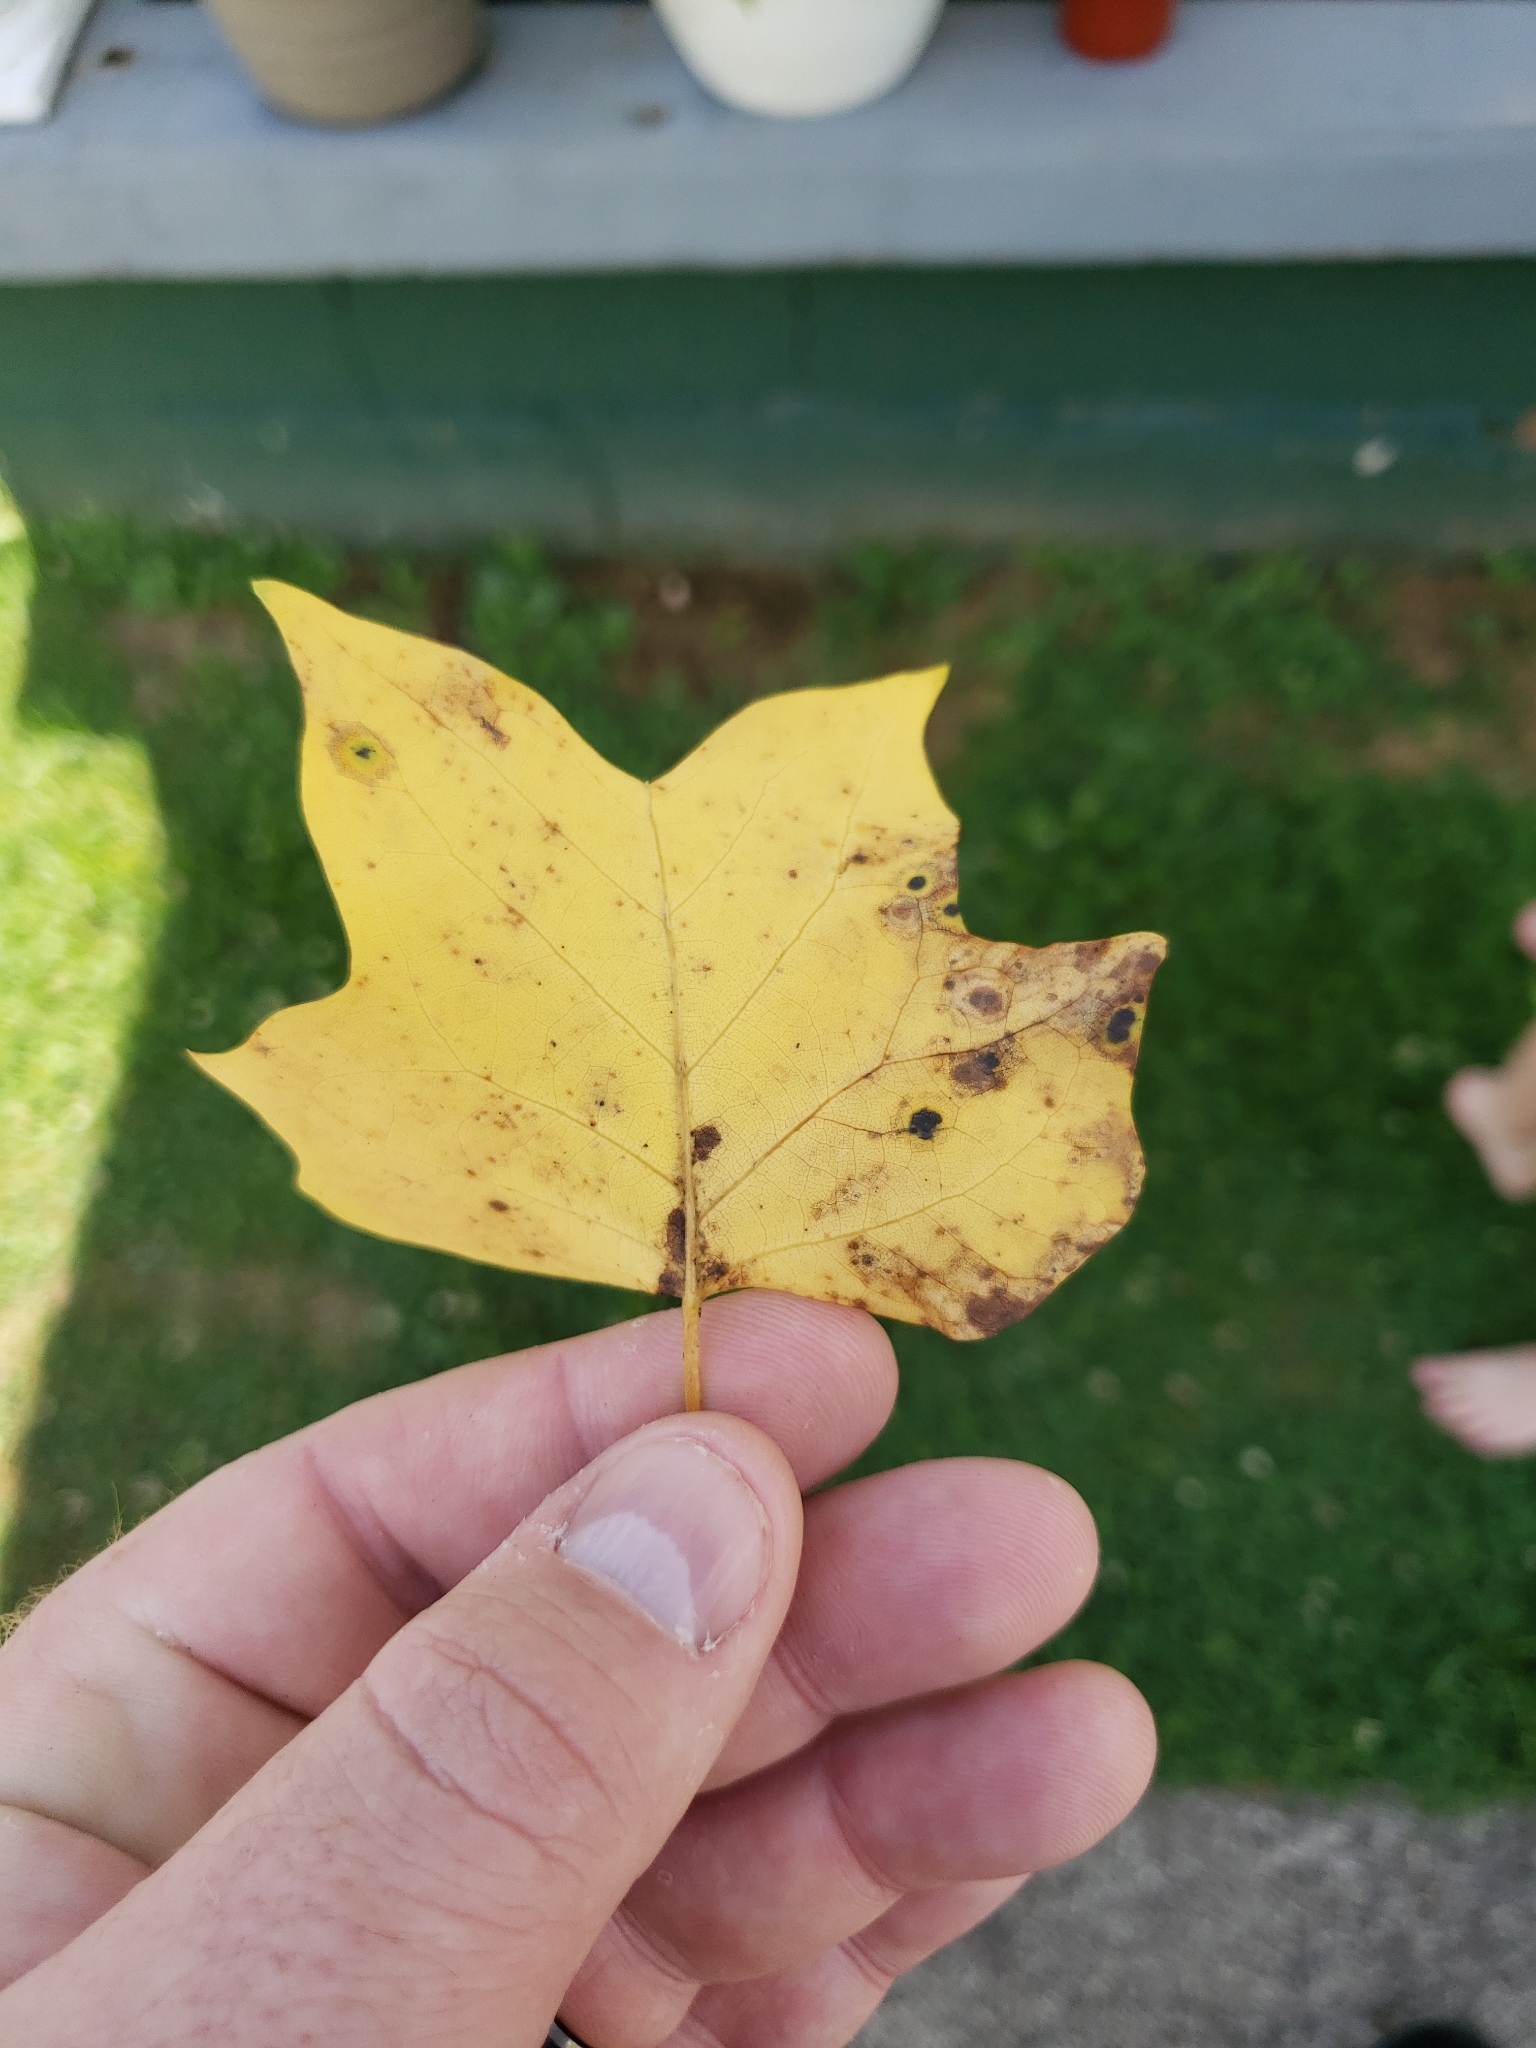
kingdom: Plantae
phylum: Tracheophyta
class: Magnoliopsida
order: Magnoliales
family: Magnoliaceae
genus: Liriodendron
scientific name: Liriodendron tulipifera
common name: Tulip tree
